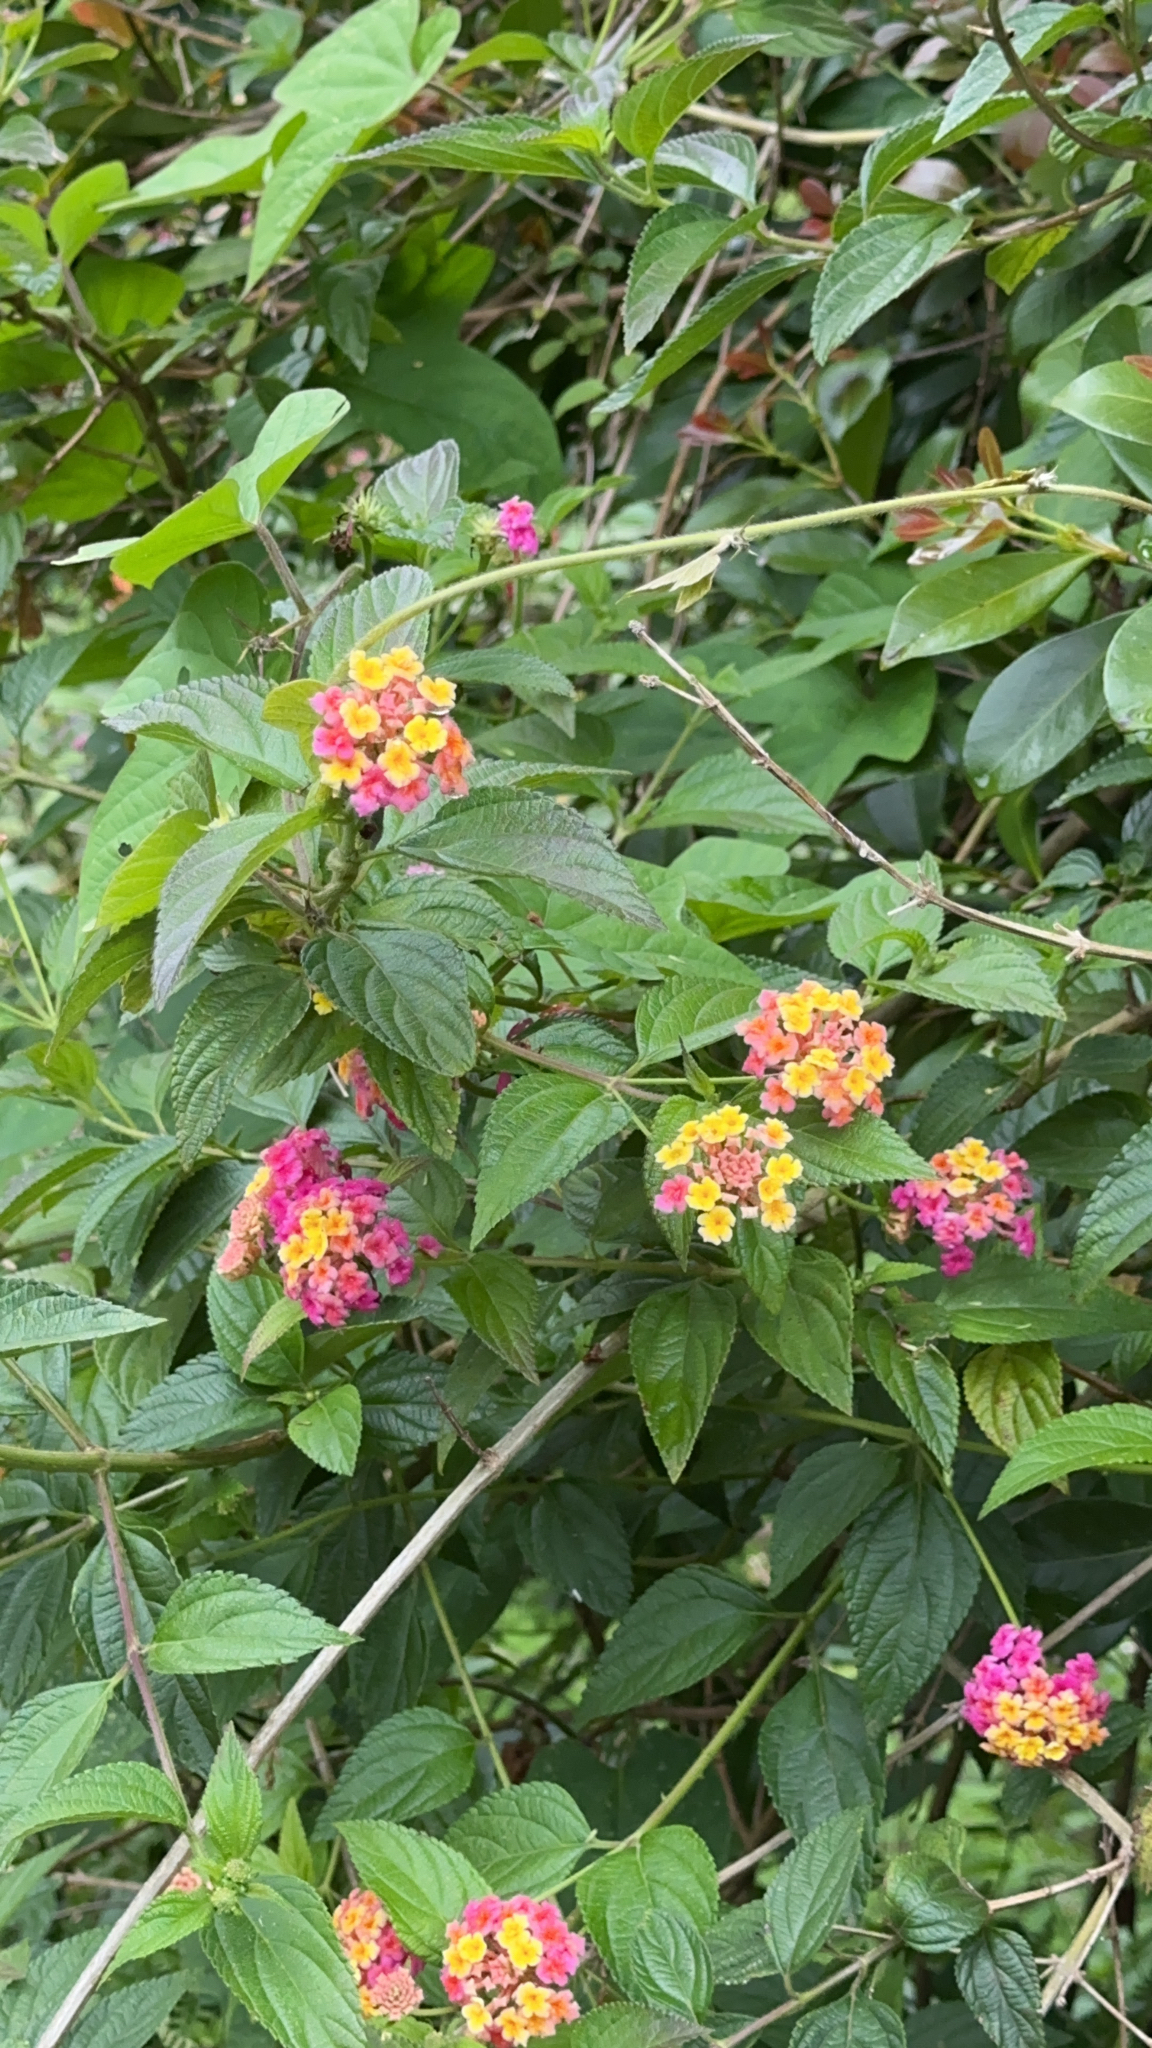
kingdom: Plantae
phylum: Tracheophyta
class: Magnoliopsida
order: Lamiales
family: Verbenaceae
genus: Lantana
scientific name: Lantana camara
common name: Lantana
